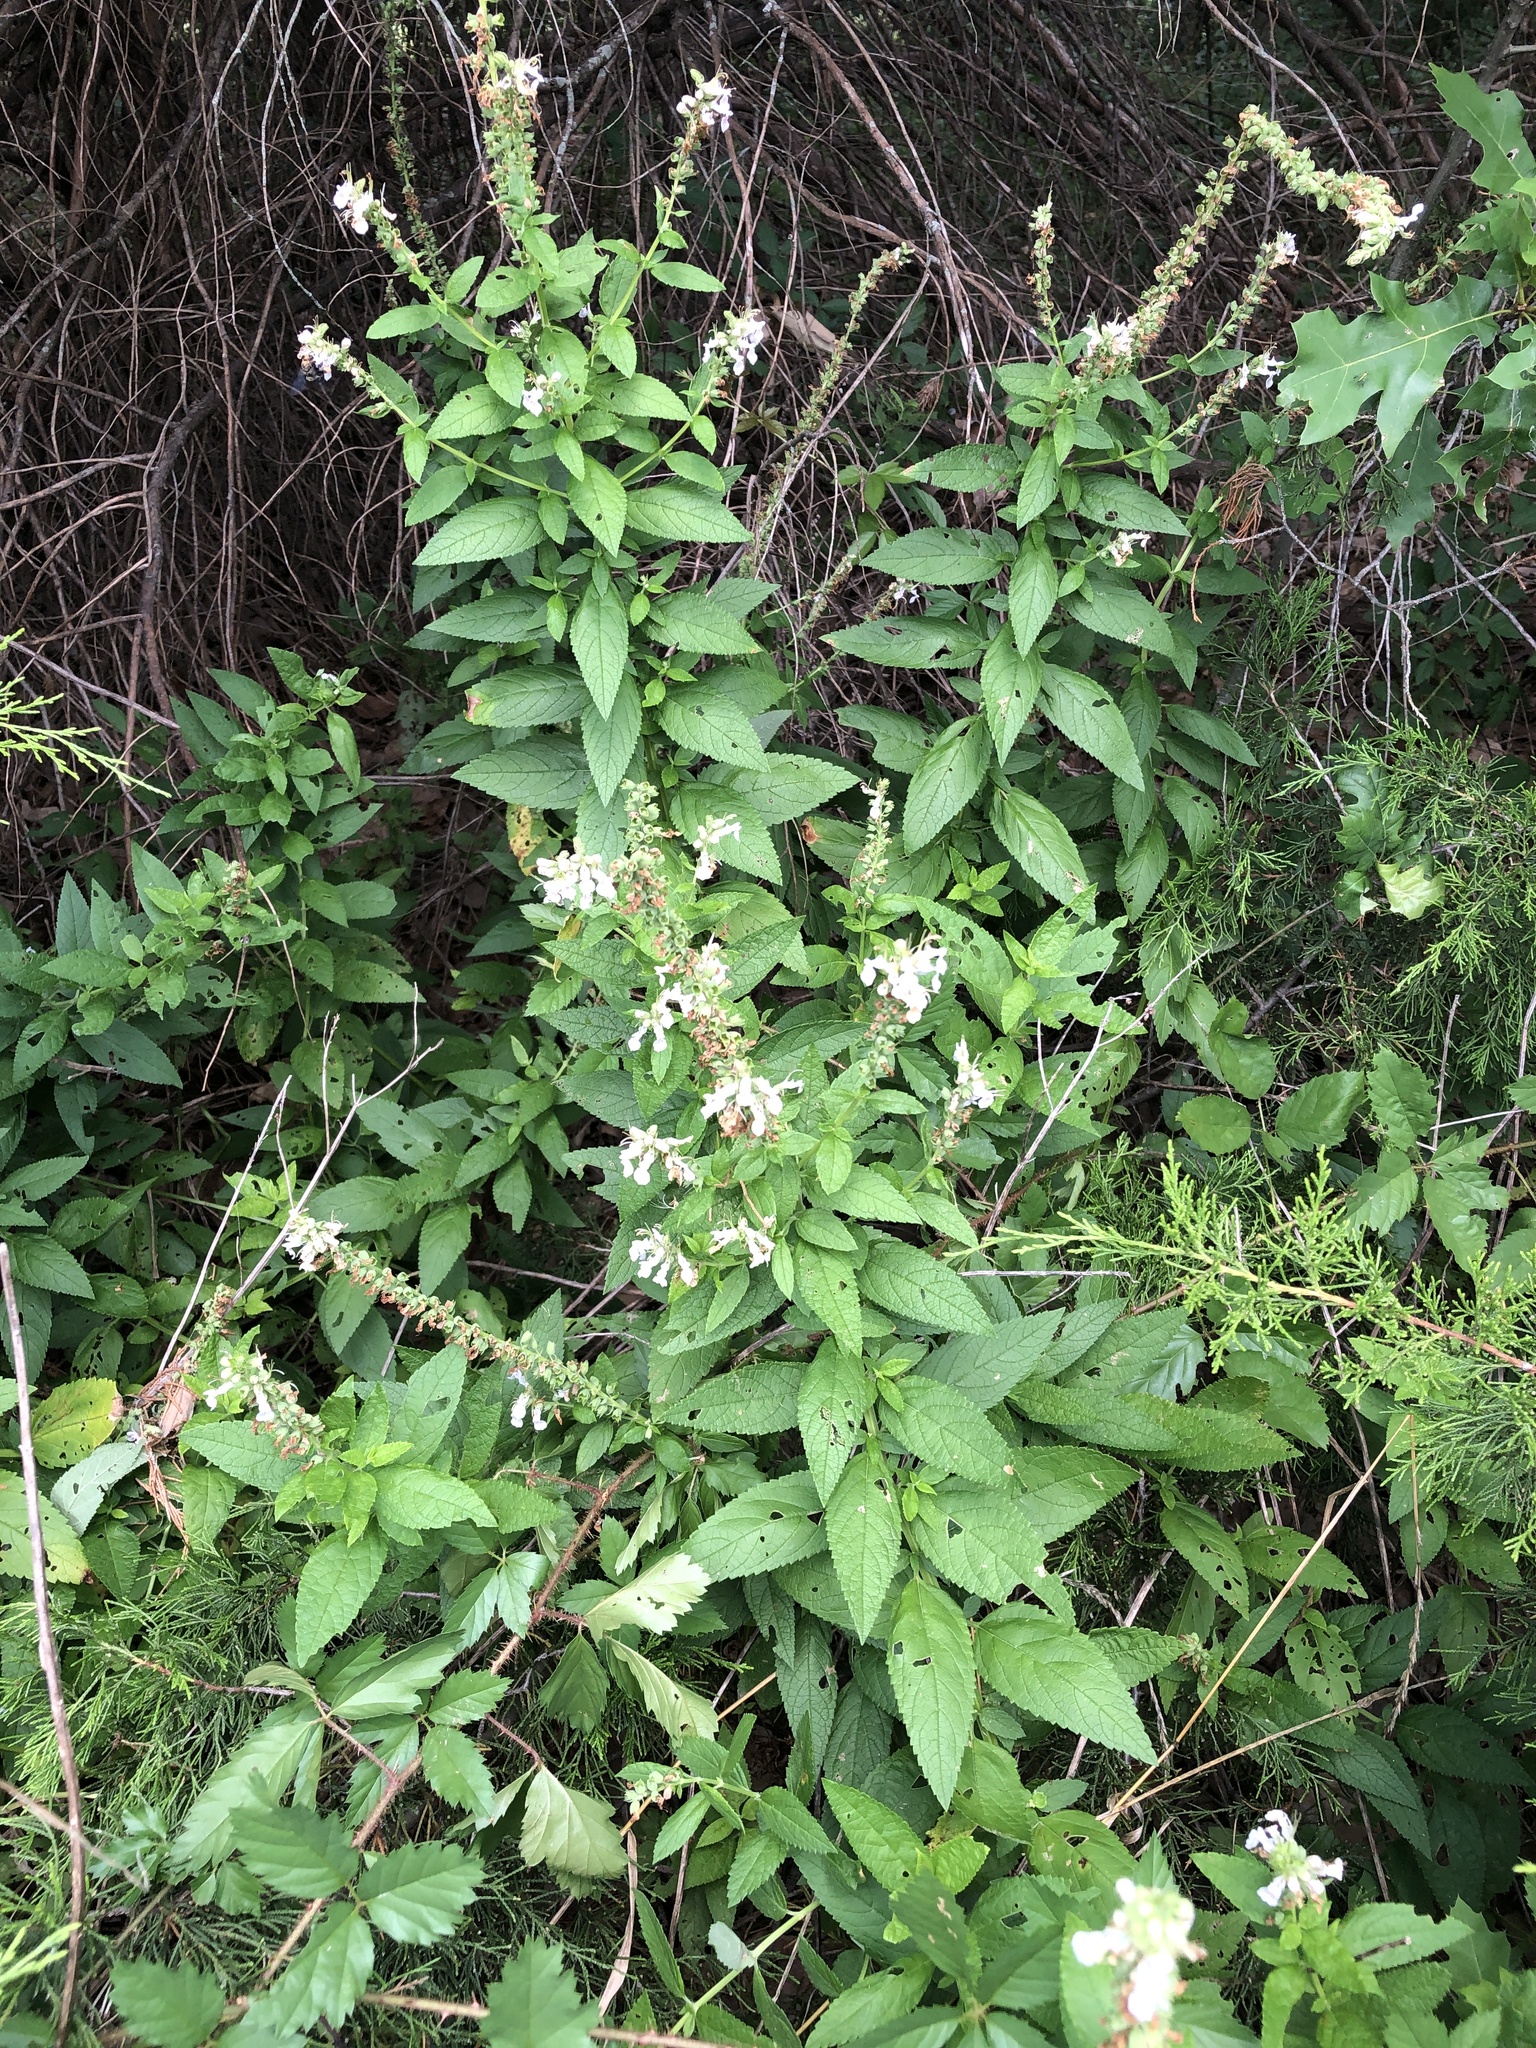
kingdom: Plantae
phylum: Tracheophyta
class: Magnoliopsida
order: Lamiales
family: Lamiaceae
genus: Teucrium
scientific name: Teucrium canadense
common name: American germander
